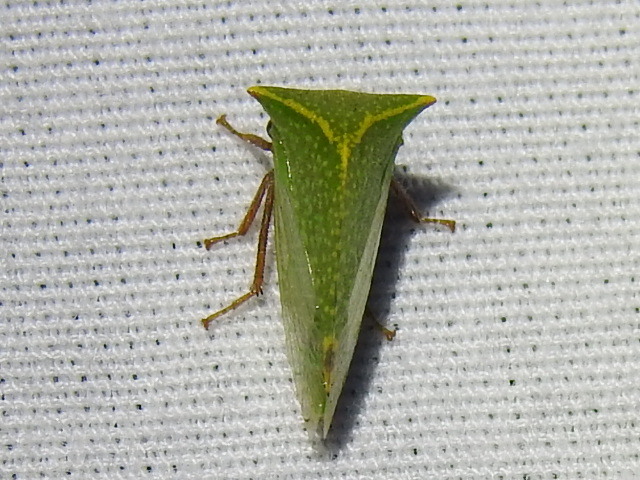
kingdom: Animalia
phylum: Arthropoda
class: Insecta
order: Hemiptera
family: Membracidae
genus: Tortistilus
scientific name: Tortistilus abnorma
